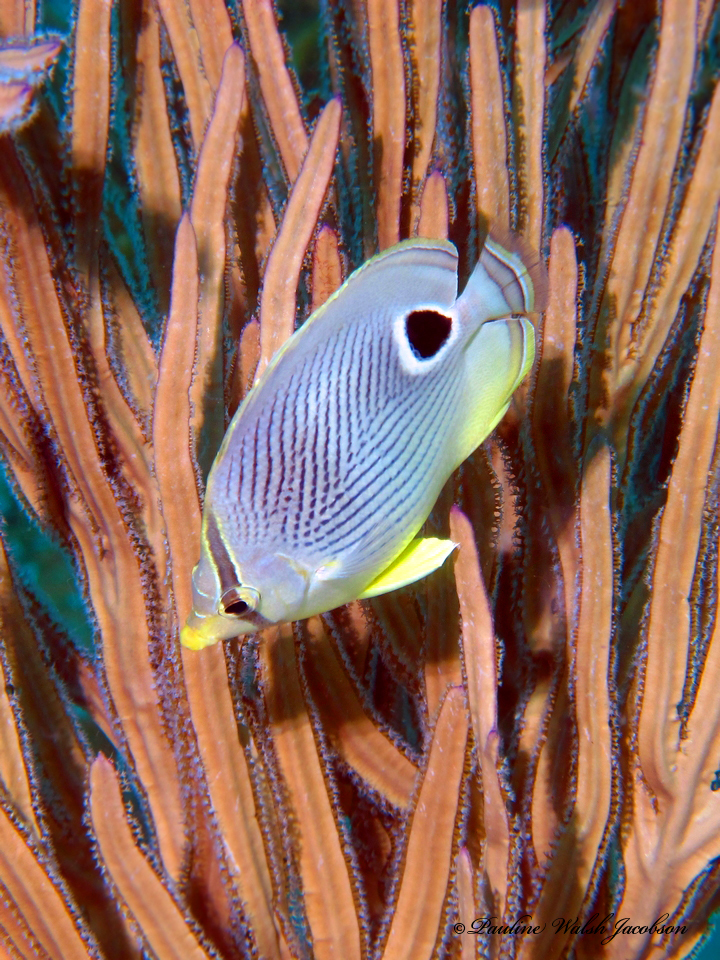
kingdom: Animalia
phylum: Chordata
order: Perciformes
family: Chaetodontidae
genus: Chaetodon
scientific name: Chaetodon capistratus
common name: Kete
